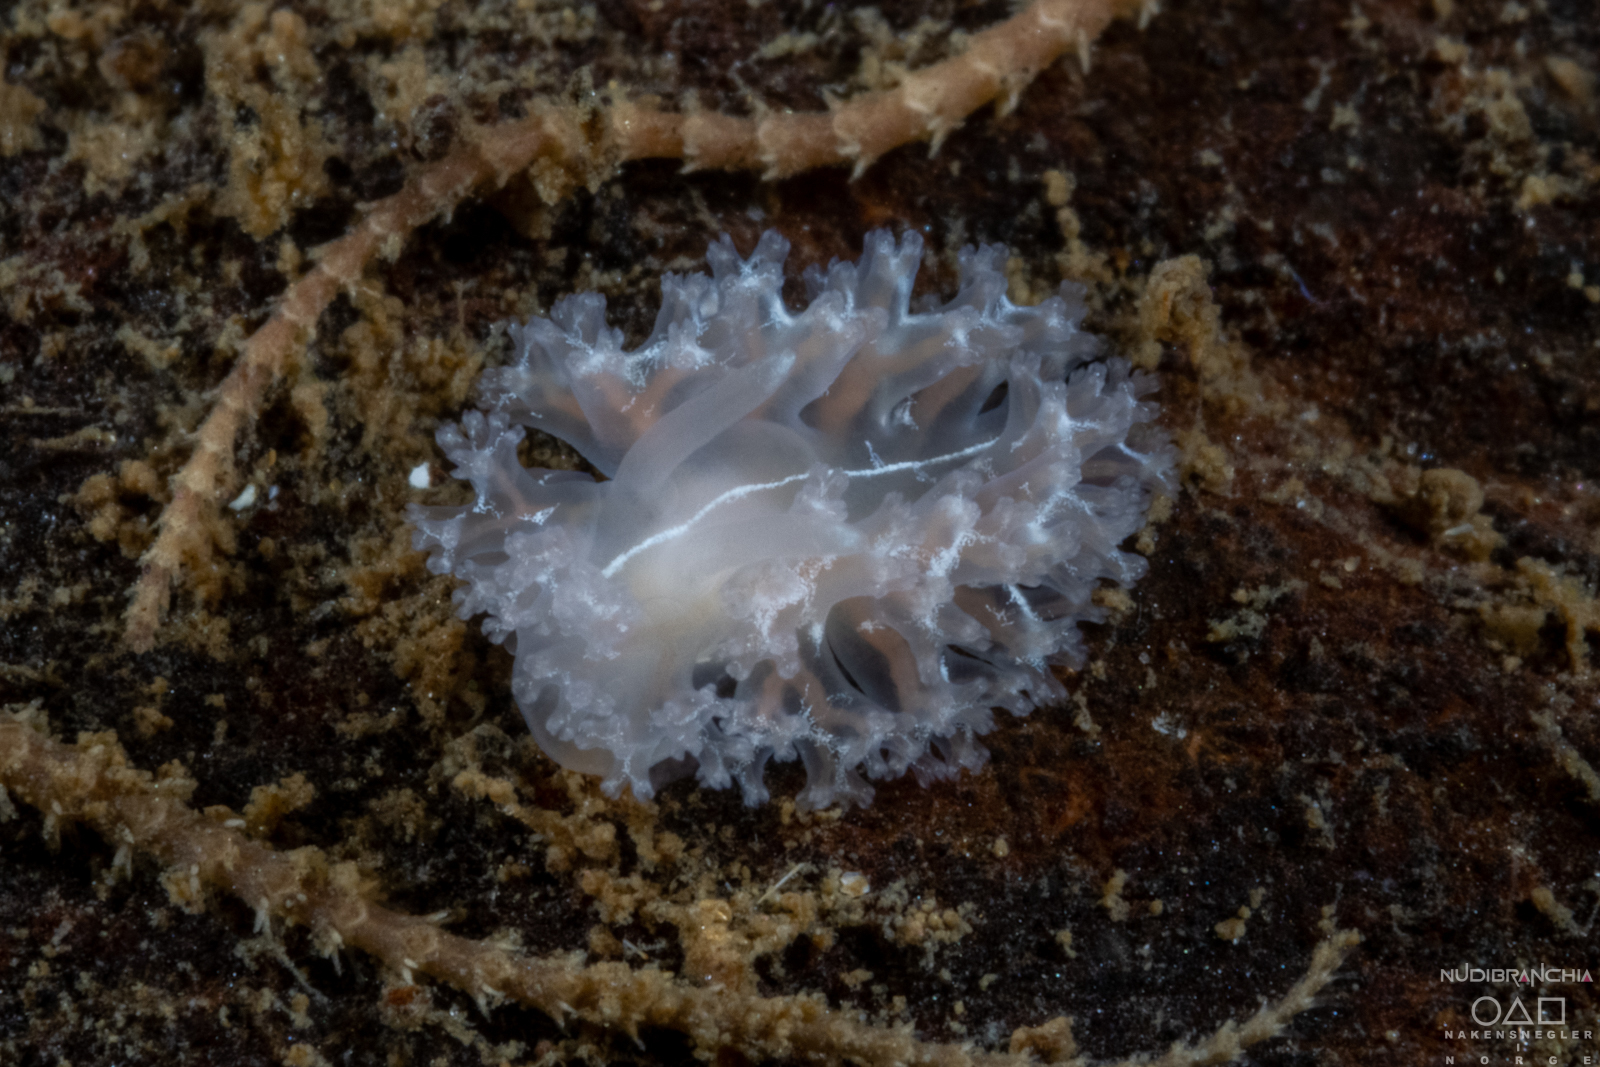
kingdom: Animalia
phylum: Mollusca
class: Gastropoda
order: Nudibranchia
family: Heroidae
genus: Hero
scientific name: Hero formosa
